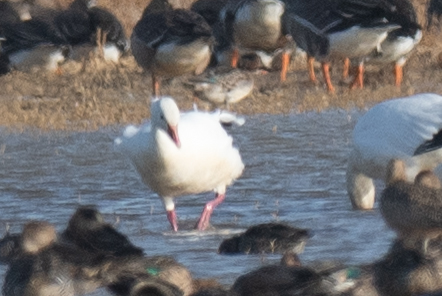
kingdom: Animalia
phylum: Chordata
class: Aves
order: Anseriformes
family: Anatidae
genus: Anser
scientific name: Anser caerulescens
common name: Snow goose
